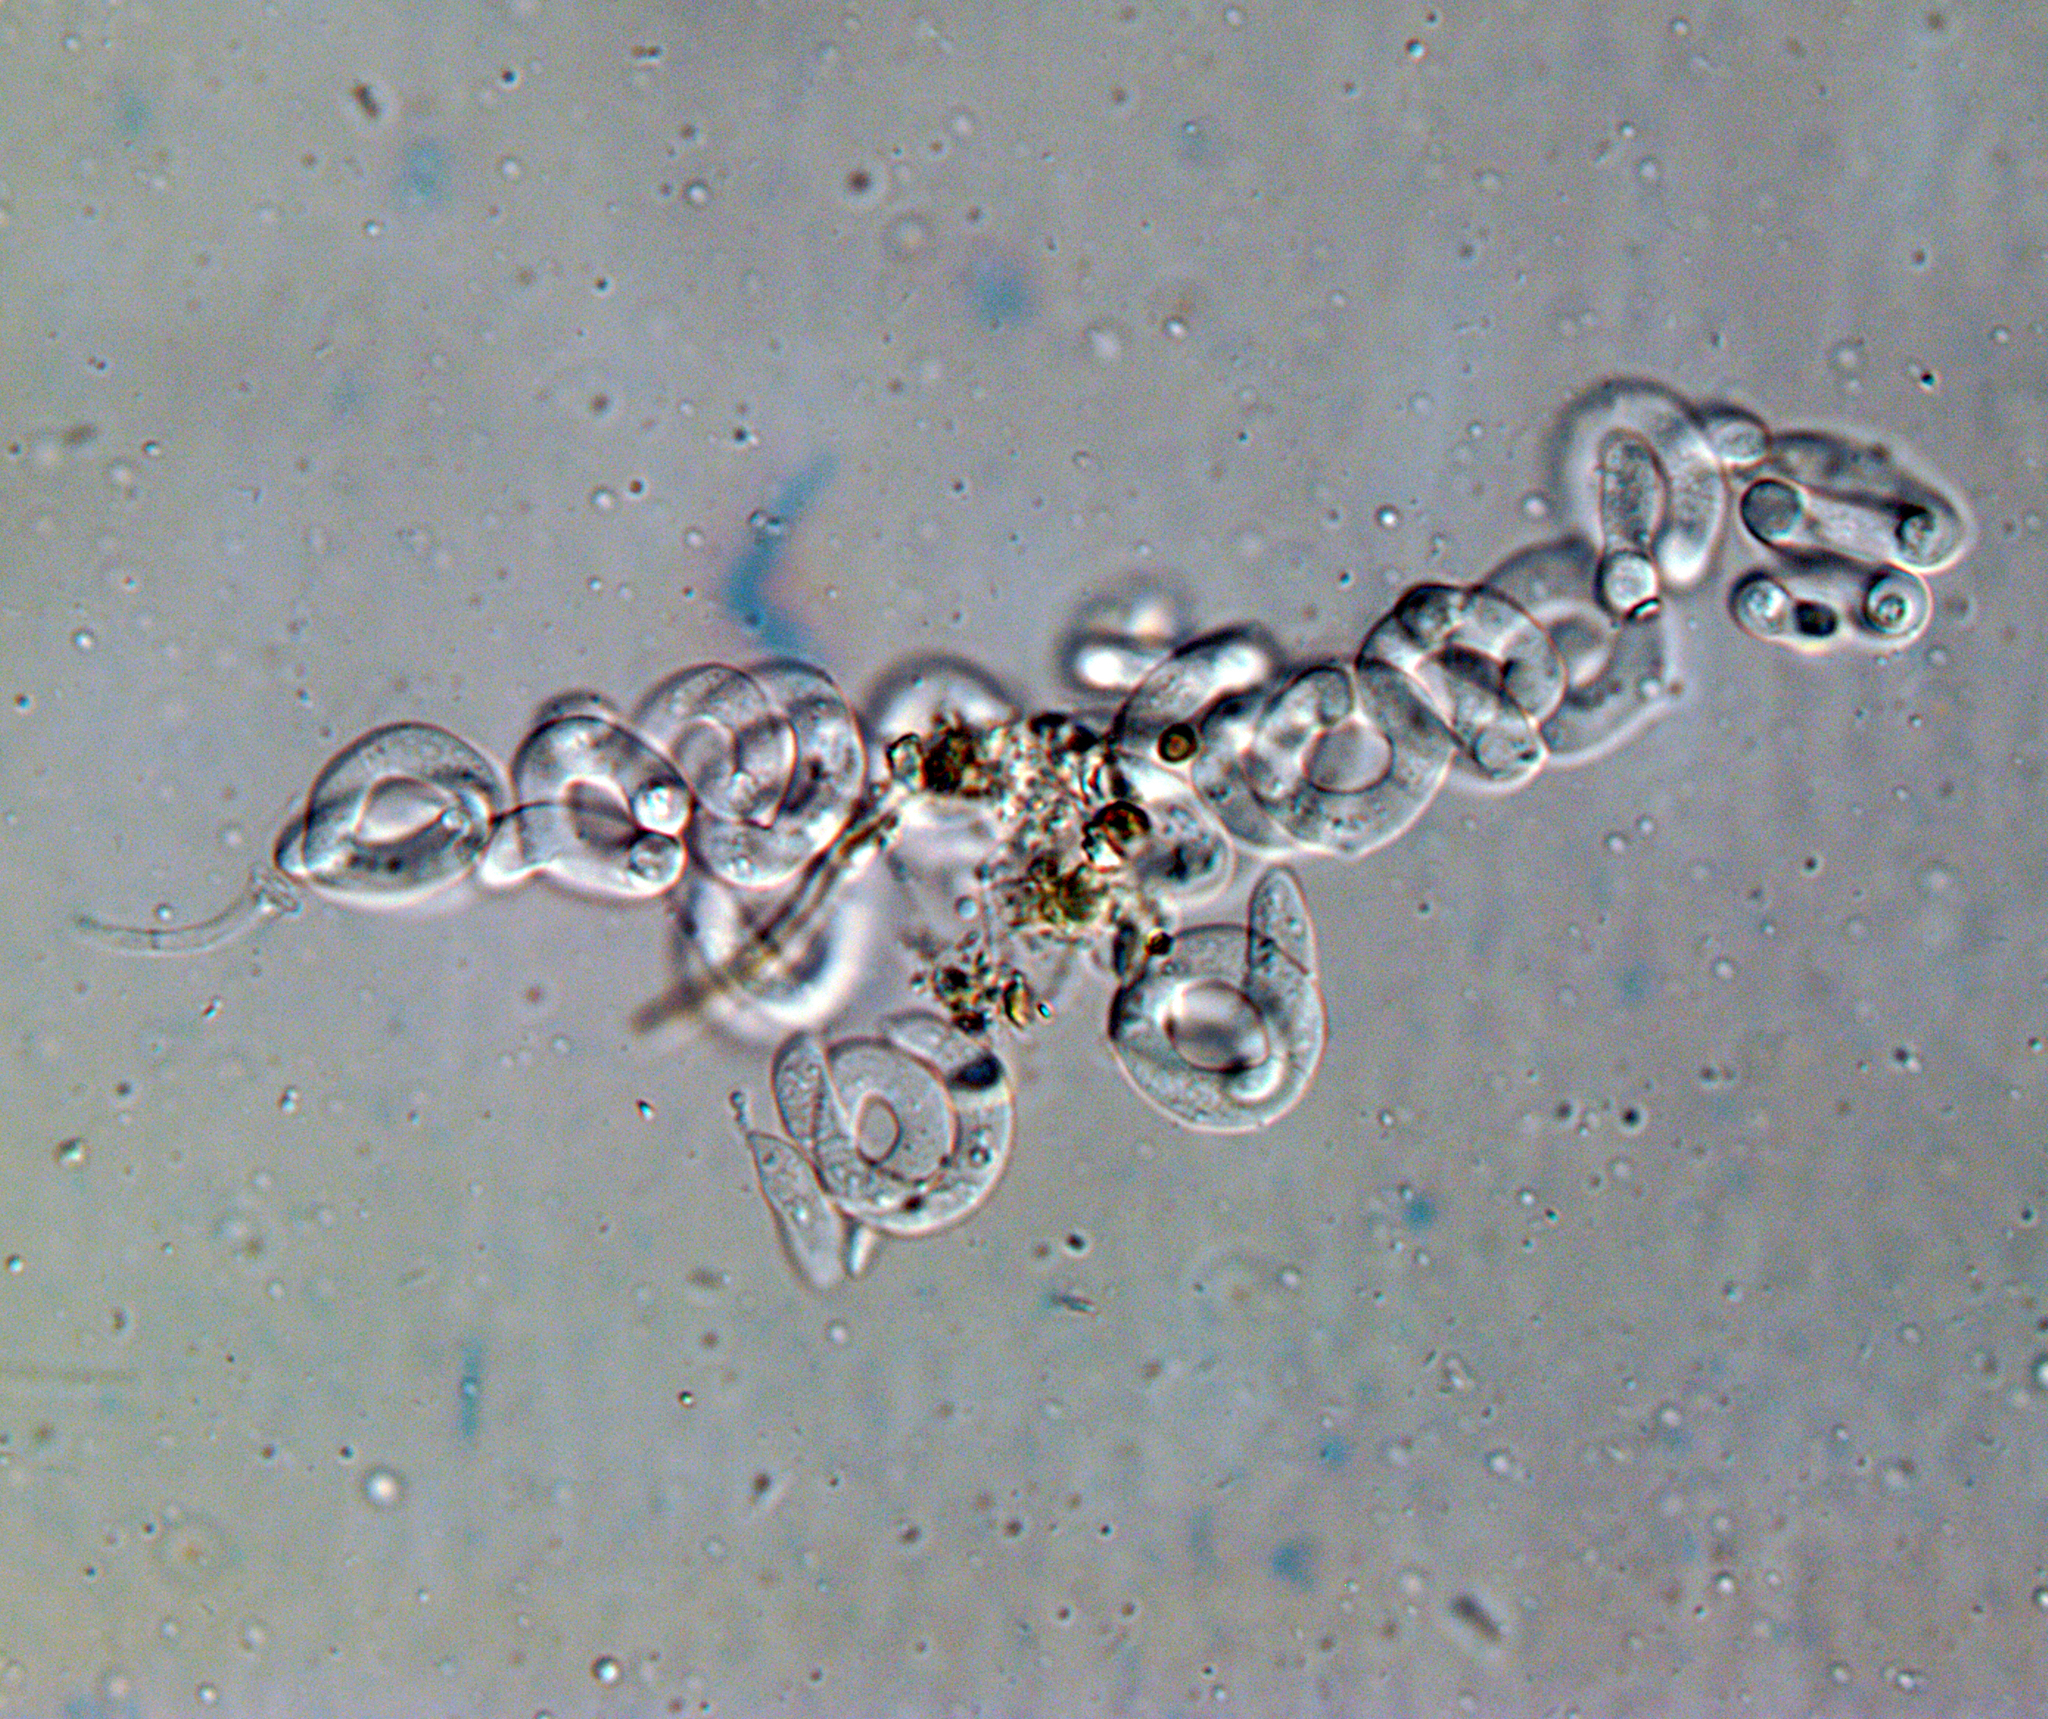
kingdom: Fungi
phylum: Ascomycota
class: Leotiomycetes
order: Helotiales
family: Helotiaceae
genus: Helicodendron
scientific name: Helicodendron triglitziense
